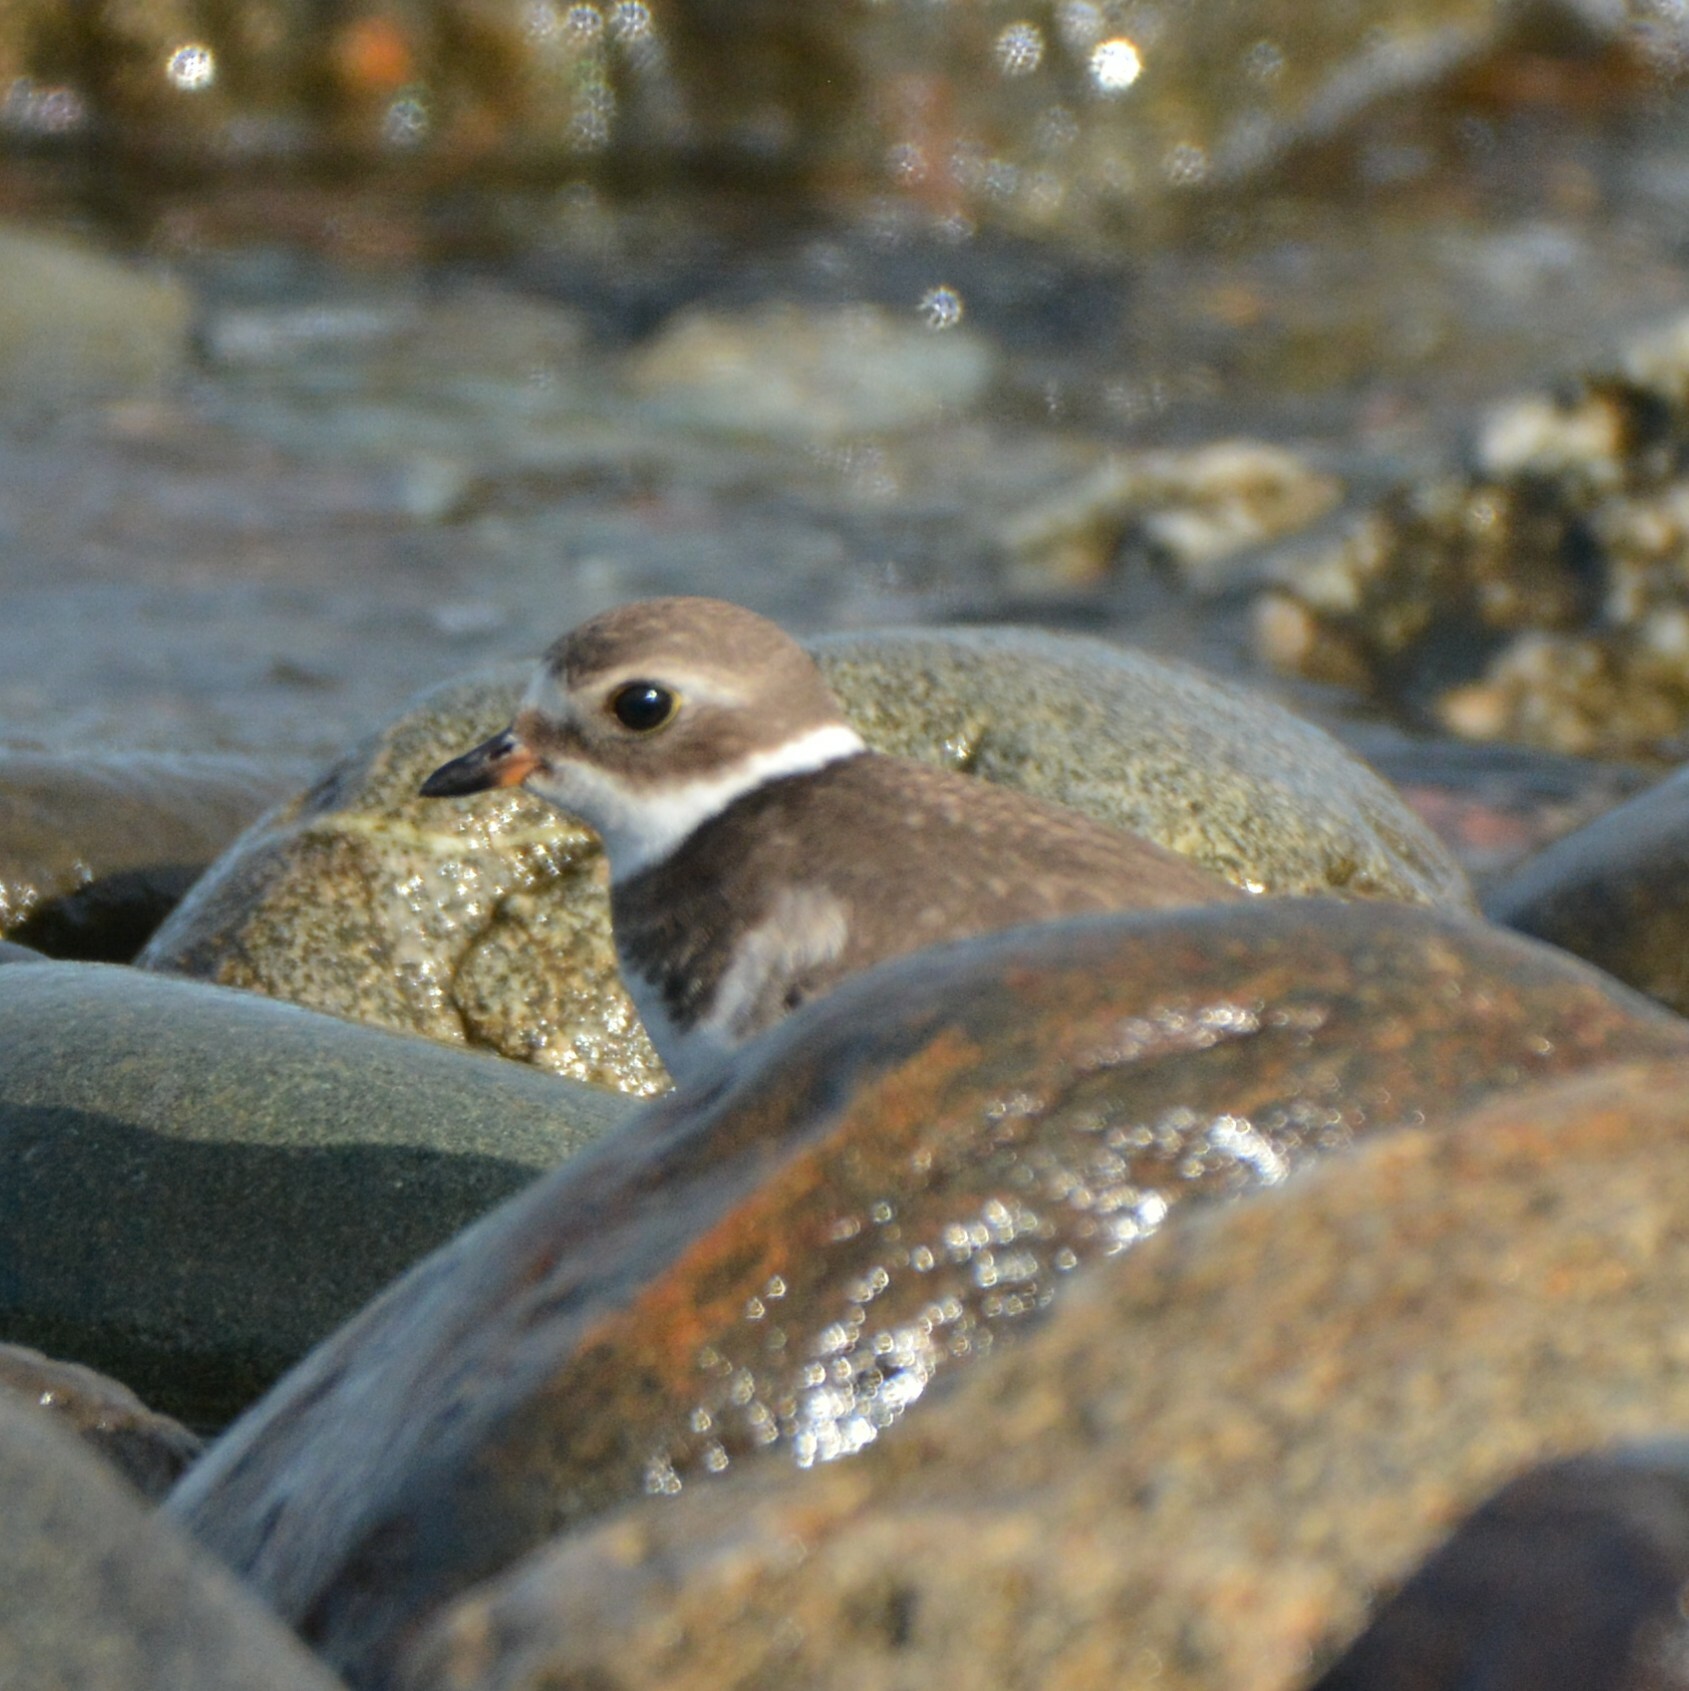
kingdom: Animalia
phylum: Chordata
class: Aves
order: Charadriiformes
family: Charadriidae
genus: Charadrius
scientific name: Charadrius semipalmatus
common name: Semipalmated plover
